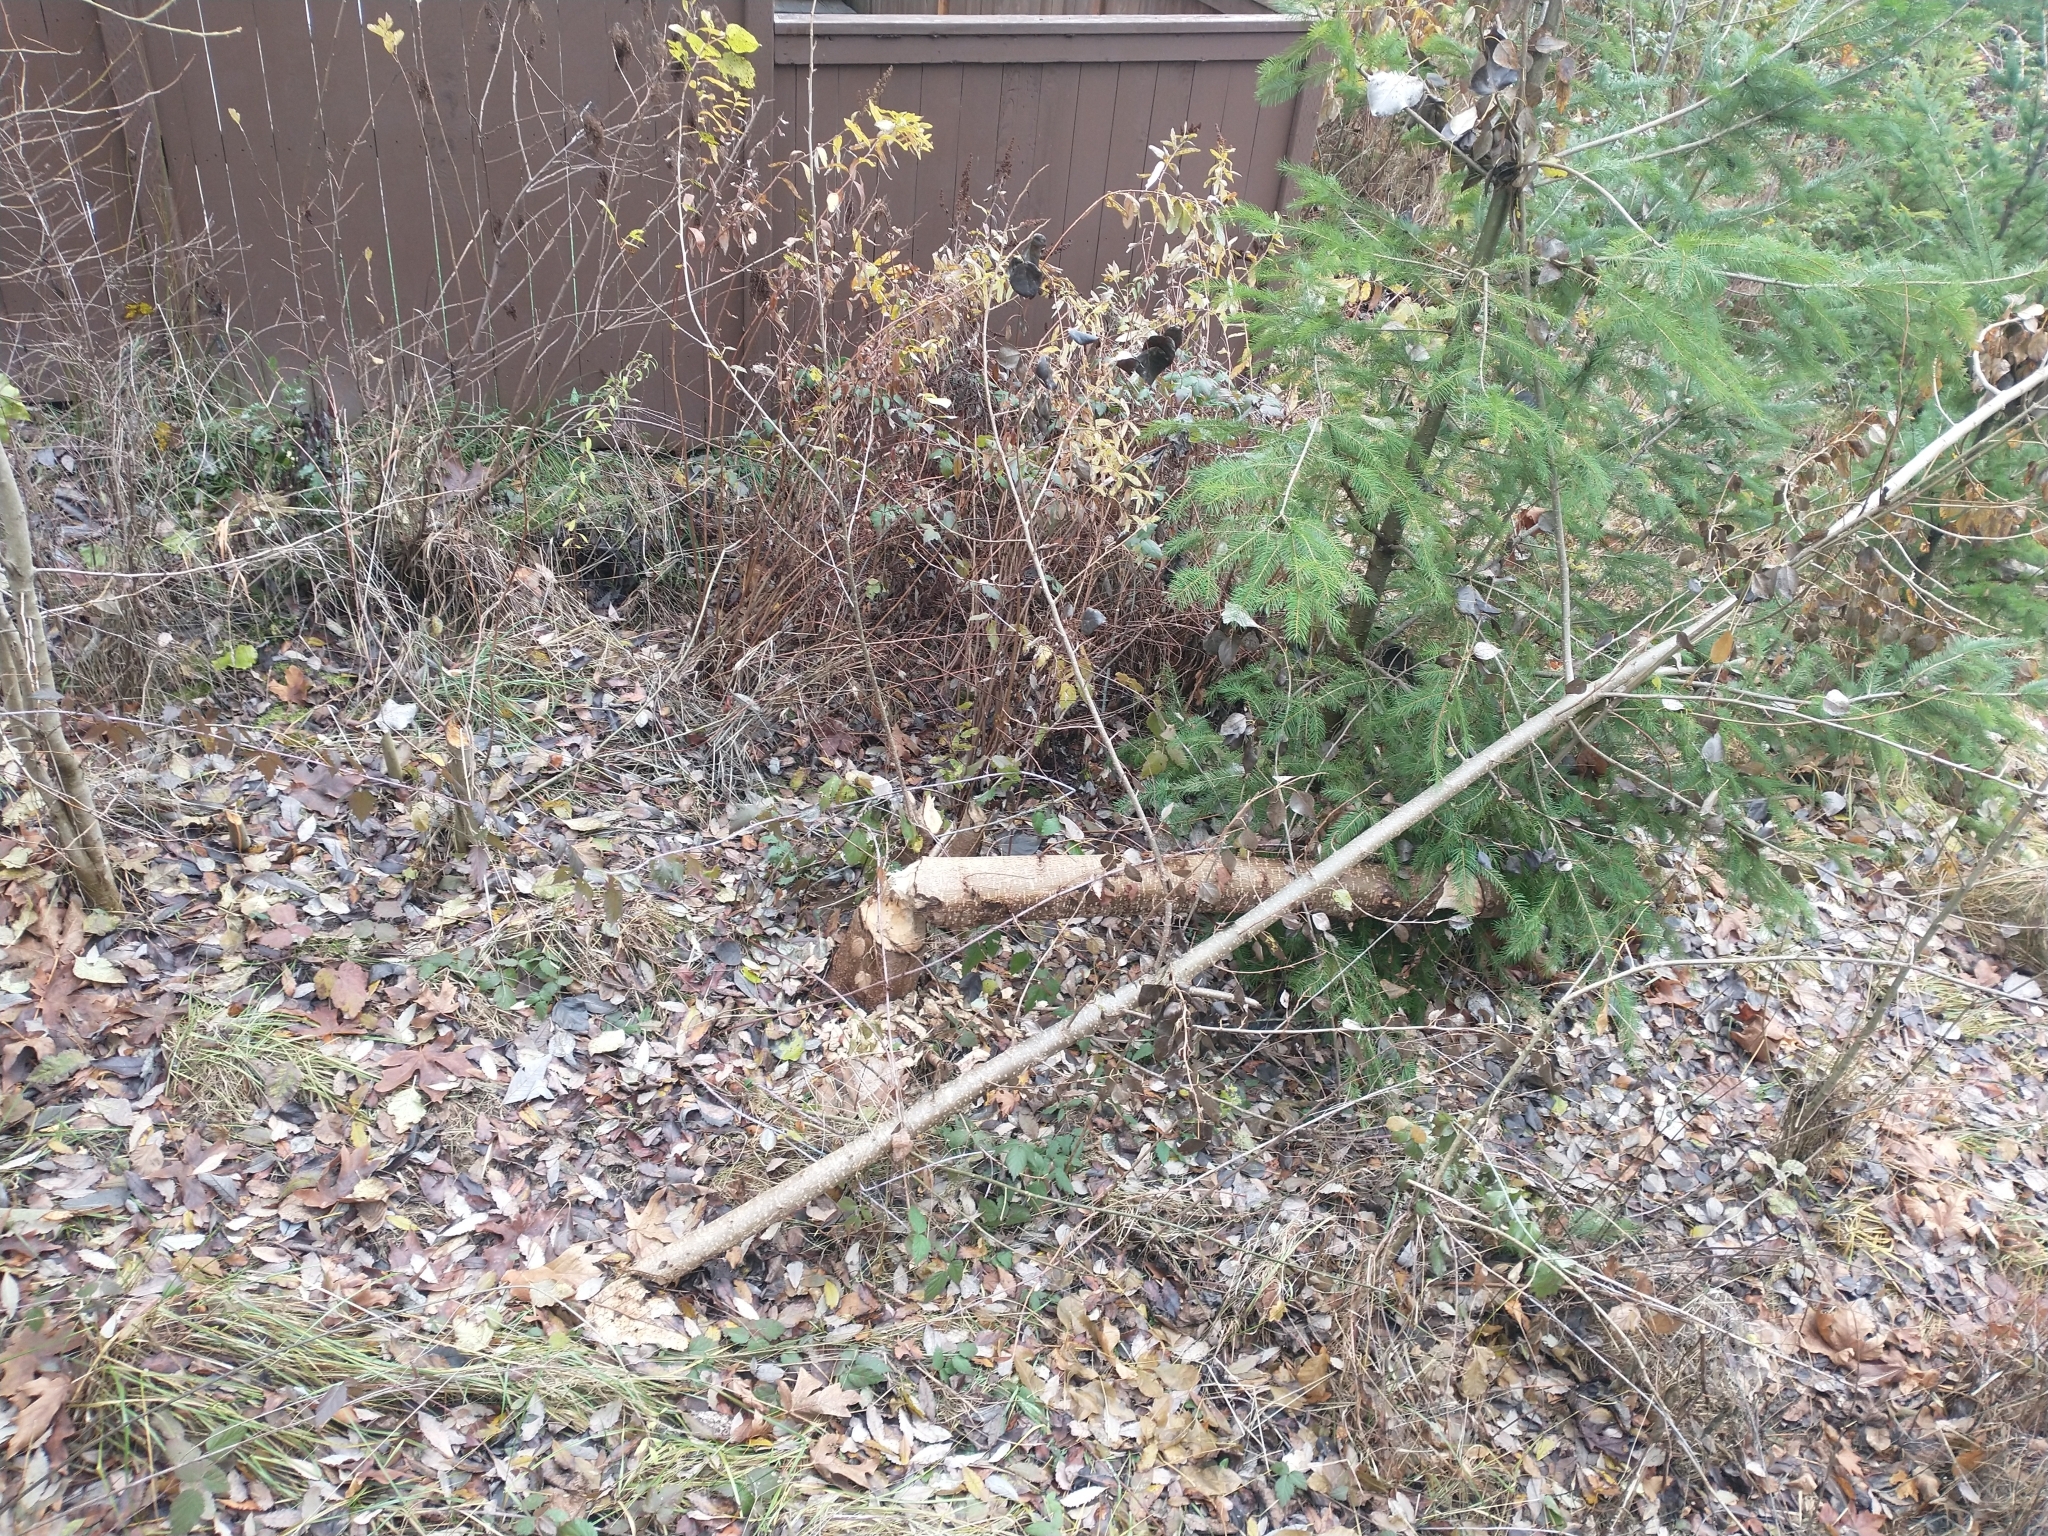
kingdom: Animalia
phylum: Chordata
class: Mammalia
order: Rodentia
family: Castoridae
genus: Castor
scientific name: Castor canadensis
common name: American beaver
